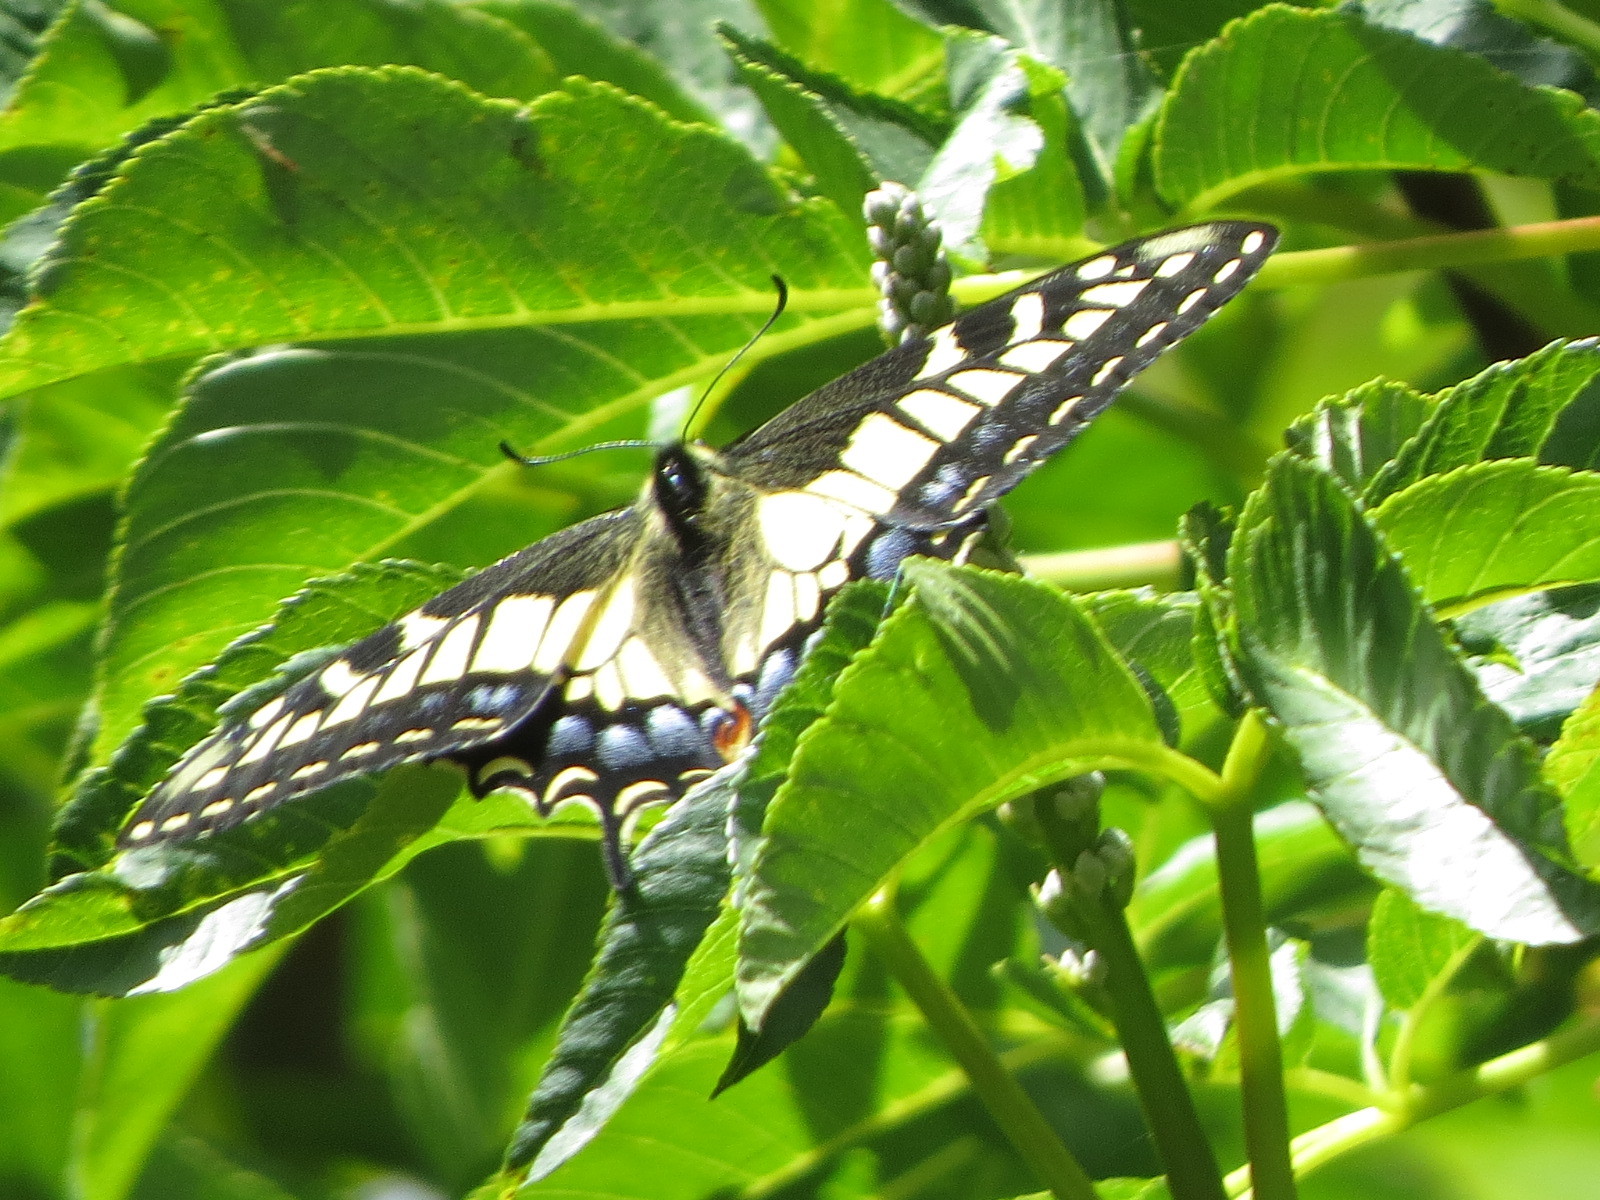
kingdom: Animalia
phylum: Arthropoda
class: Insecta
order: Lepidoptera
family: Papilionidae
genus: Papilio
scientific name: Papilio zelicaon
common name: Anise swallowtail
